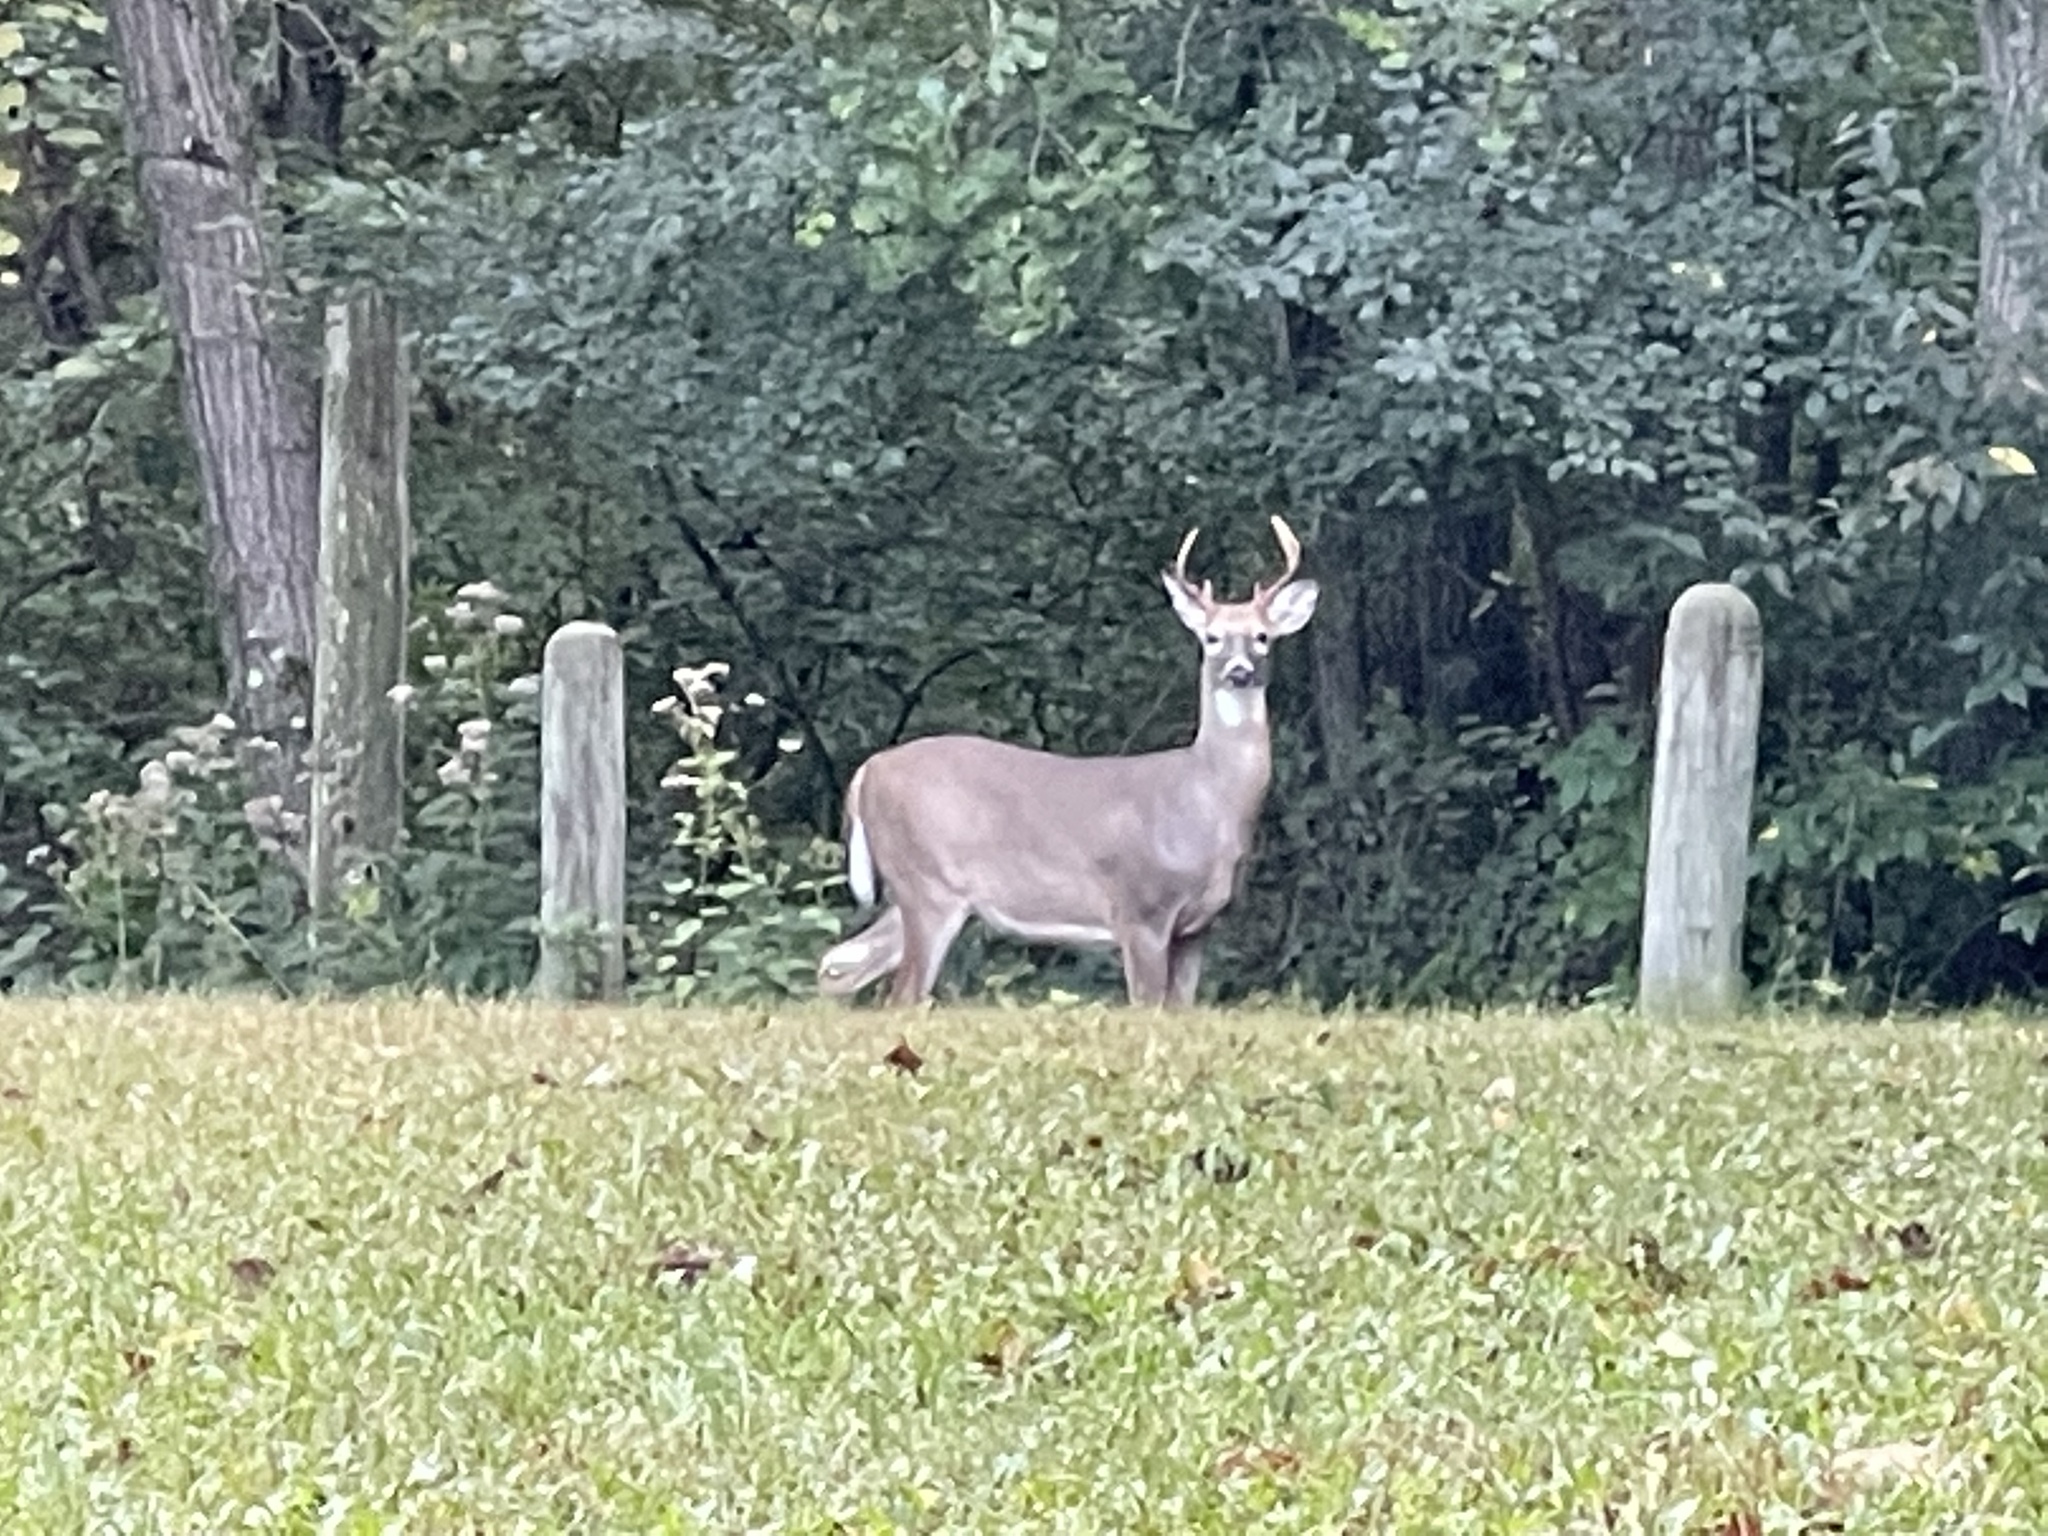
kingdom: Animalia
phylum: Chordata
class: Mammalia
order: Artiodactyla
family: Cervidae
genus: Odocoileus
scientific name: Odocoileus virginianus
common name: White-tailed deer
